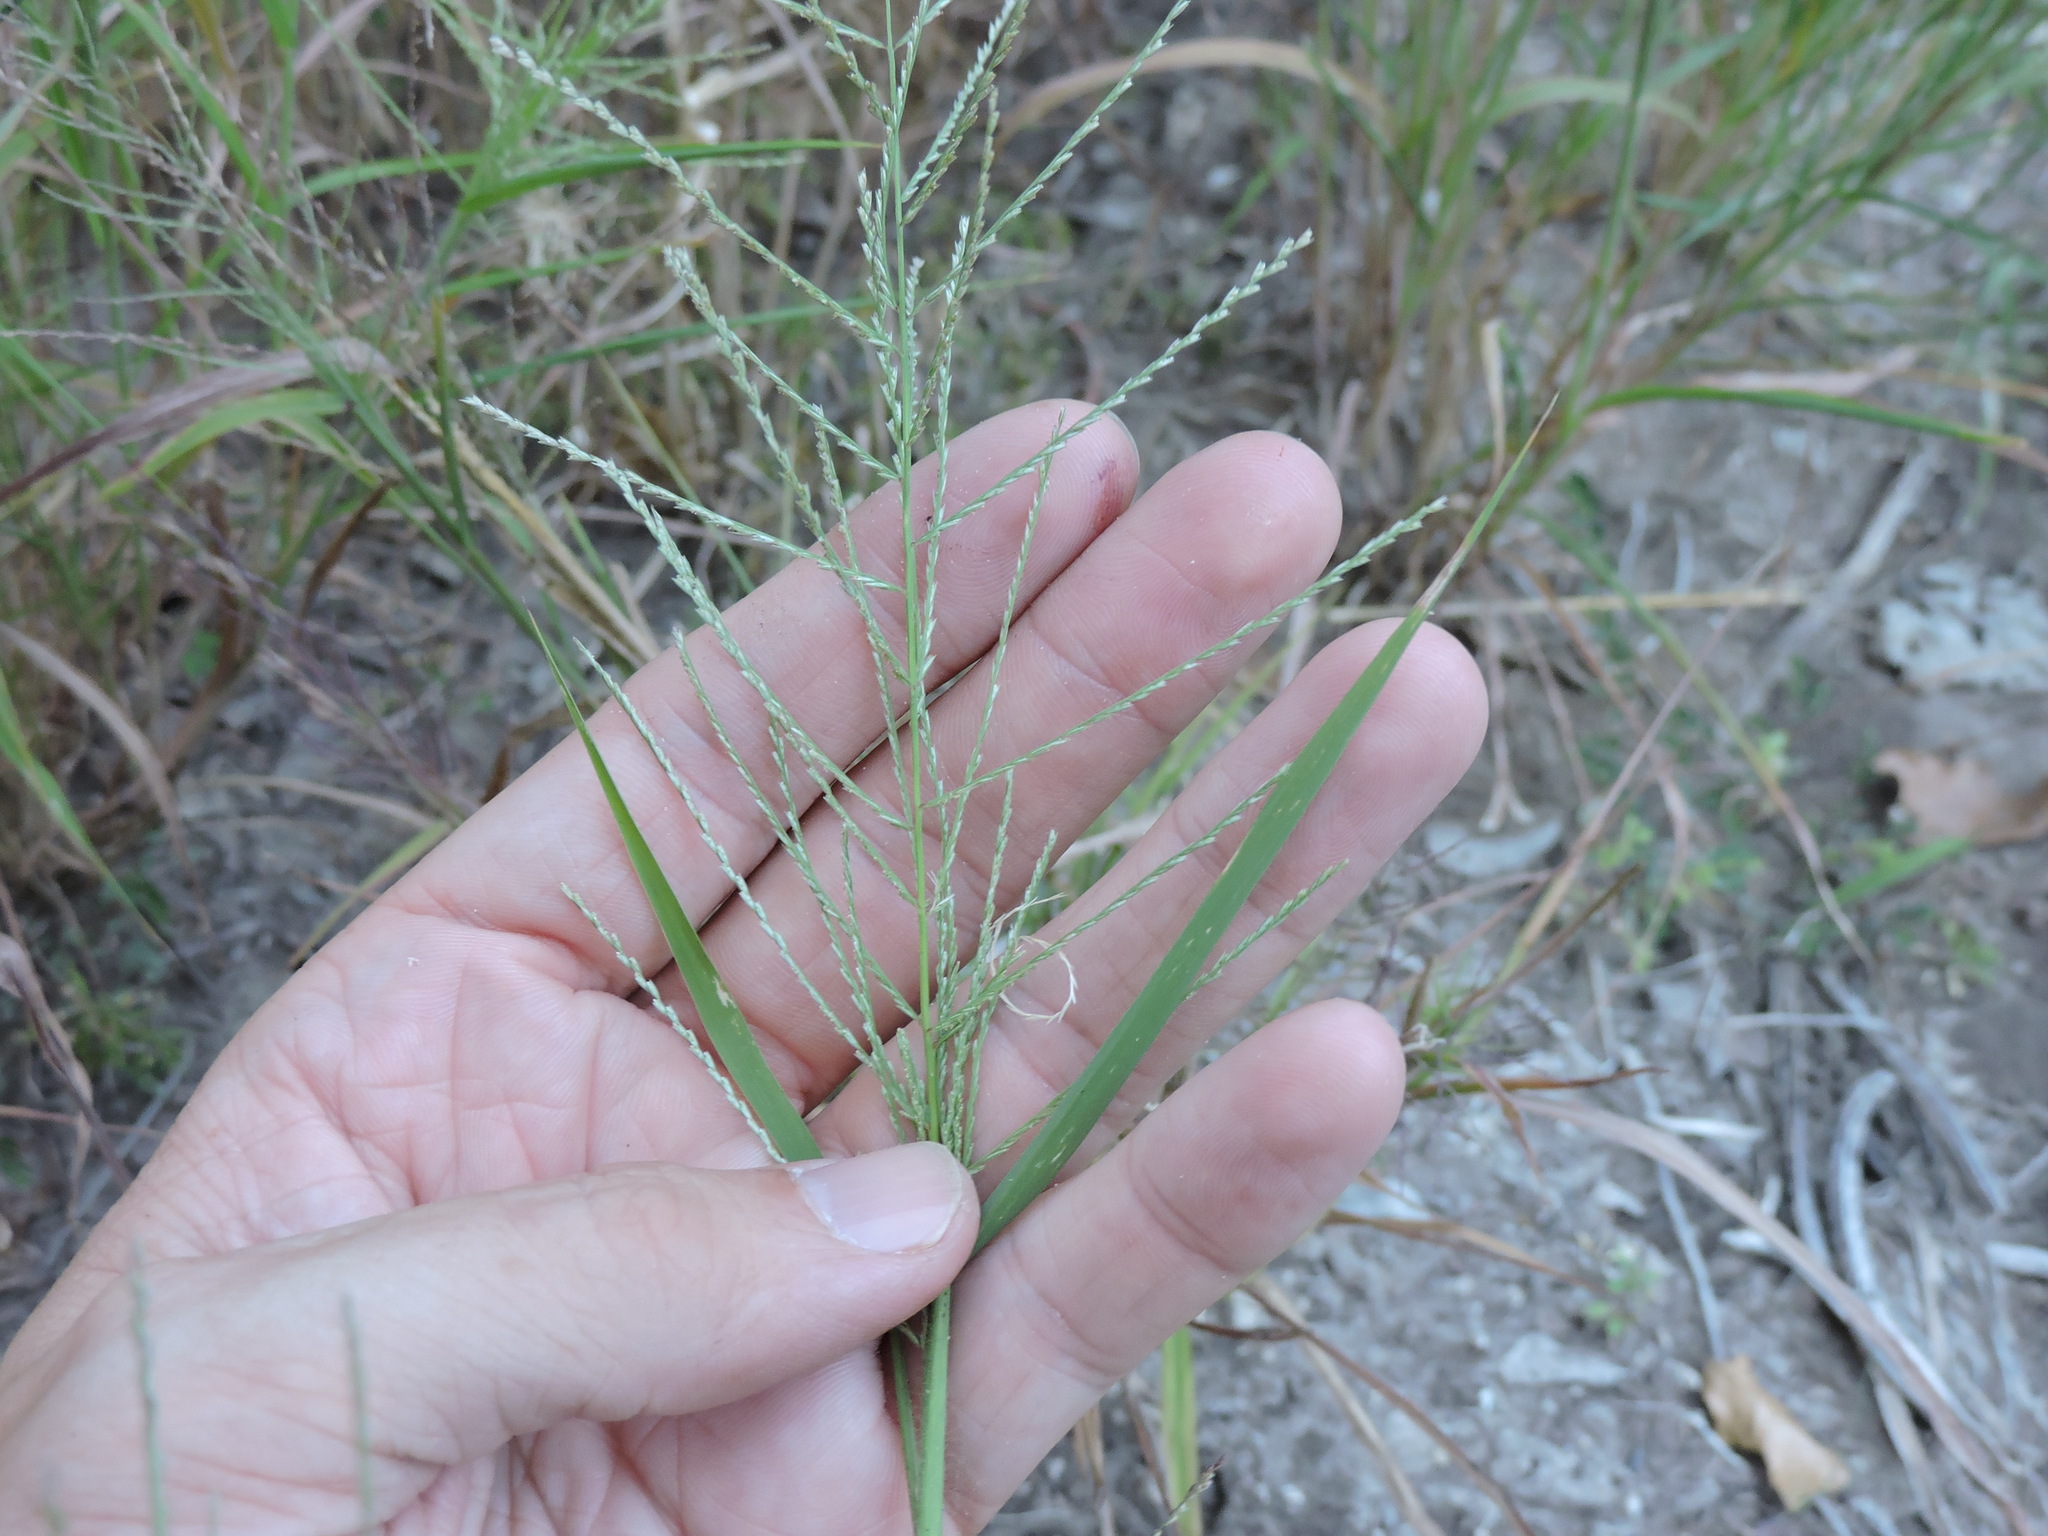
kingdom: Plantae
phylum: Tracheophyta
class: Liliopsida
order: Poales
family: Poaceae
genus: Leptochloa
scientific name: Leptochloa mucronata
